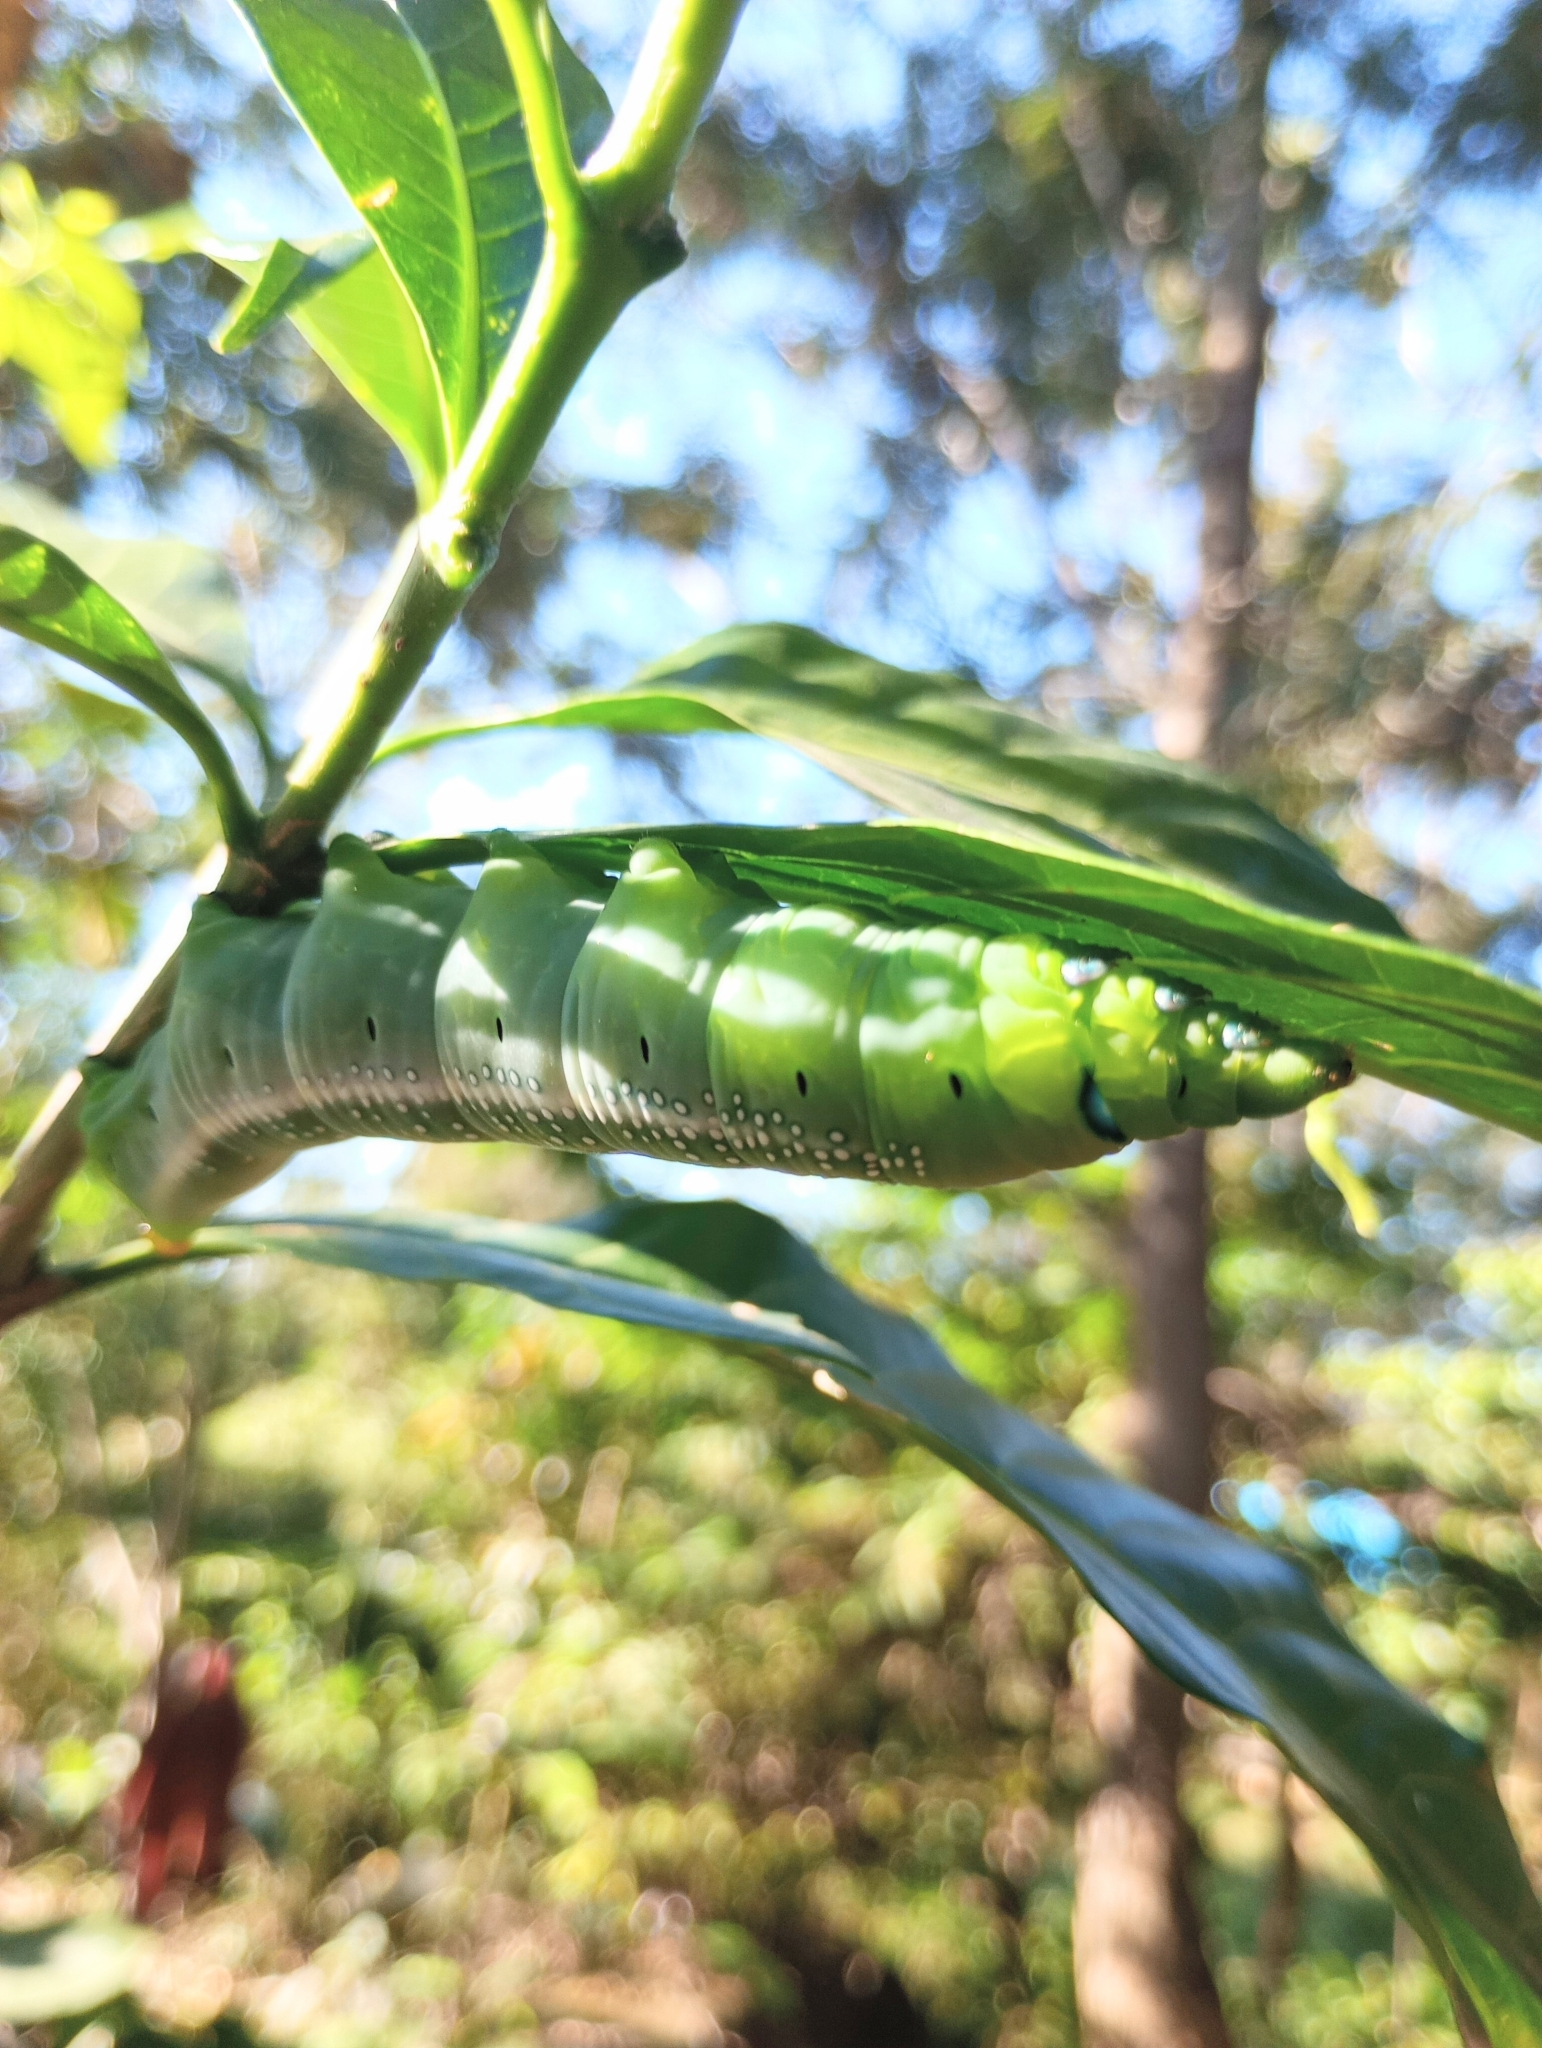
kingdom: Animalia
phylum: Arthropoda
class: Insecta
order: Lepidoptera
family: Sphingidae
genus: Daphnis
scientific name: Daphnis nerii
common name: Oleander hawk-moth
